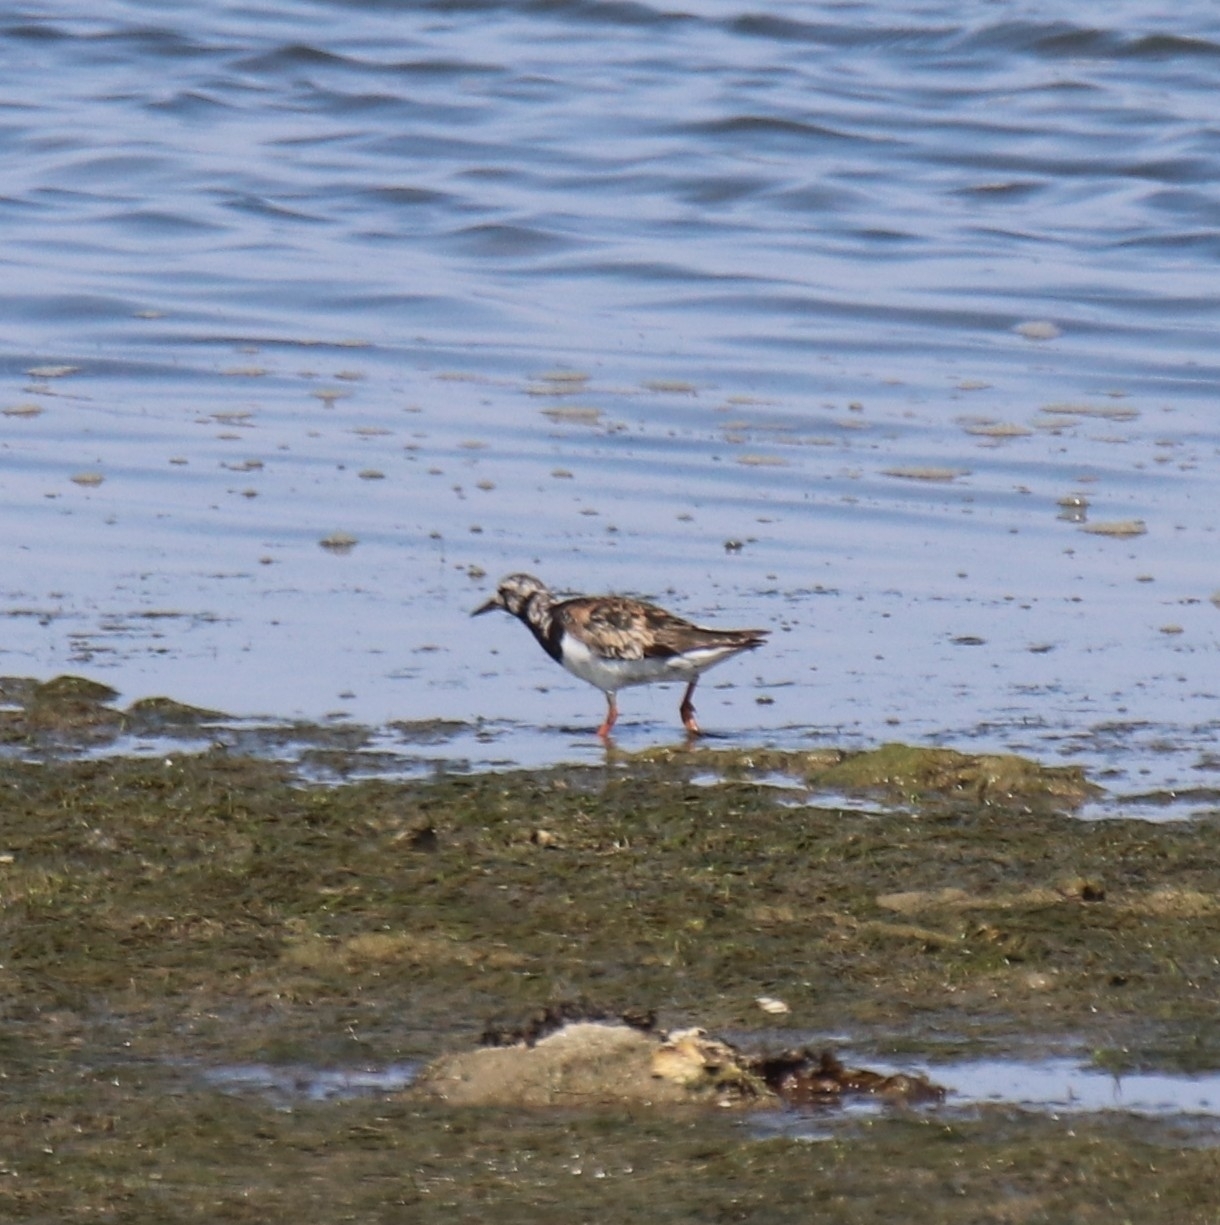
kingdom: Animalia
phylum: Chordata
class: Aves
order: Charadriiformes
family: Scolopacidae
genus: Arenaria
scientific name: Arenaria interpres
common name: Ruddy turnstone
